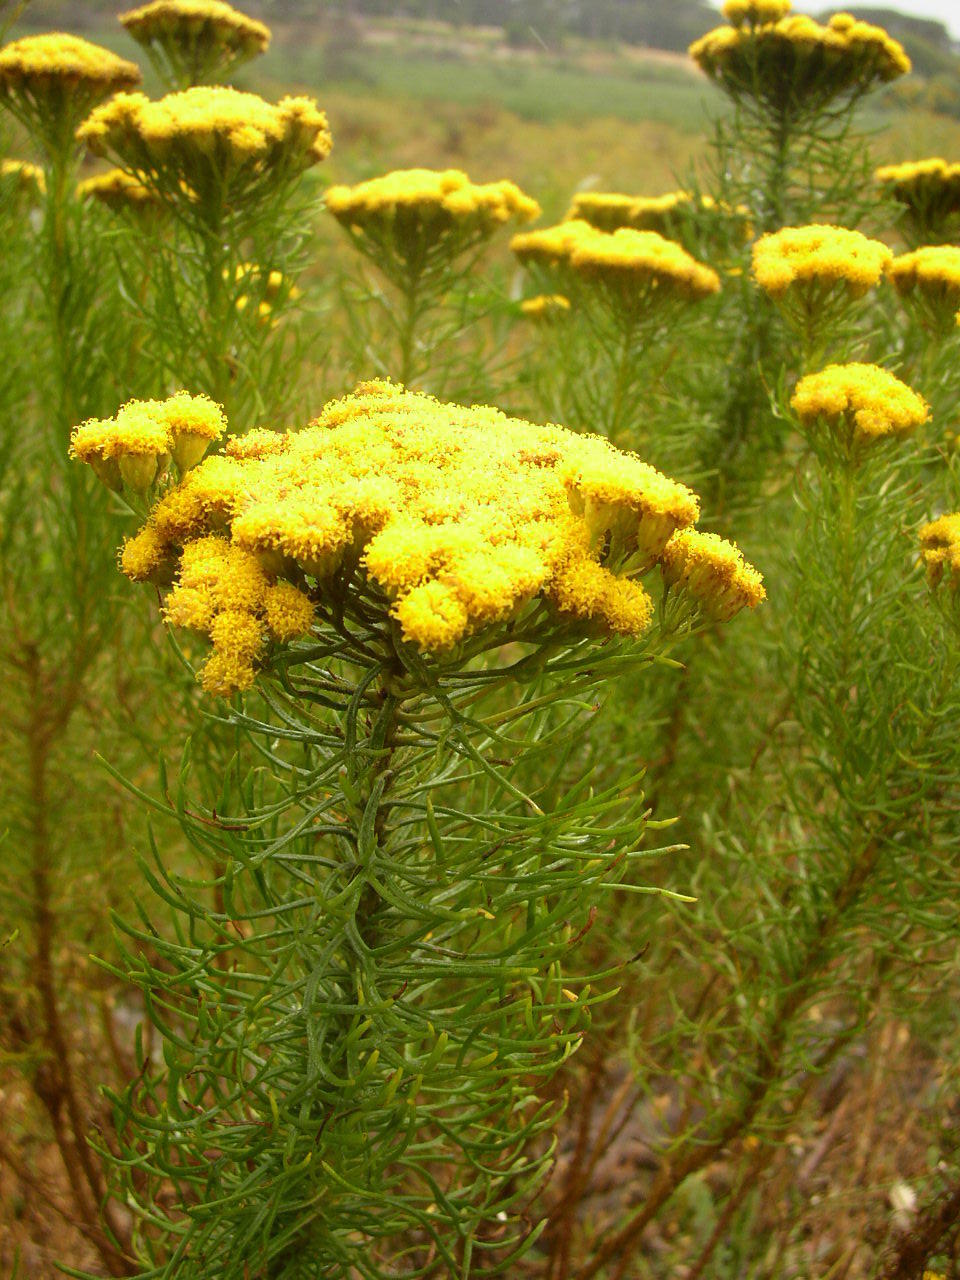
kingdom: Plantae
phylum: Tracheophyta
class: Magnoliopsida
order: Asterales
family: Asteraceae
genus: Athanasia
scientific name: Athanasia crithmifolia
